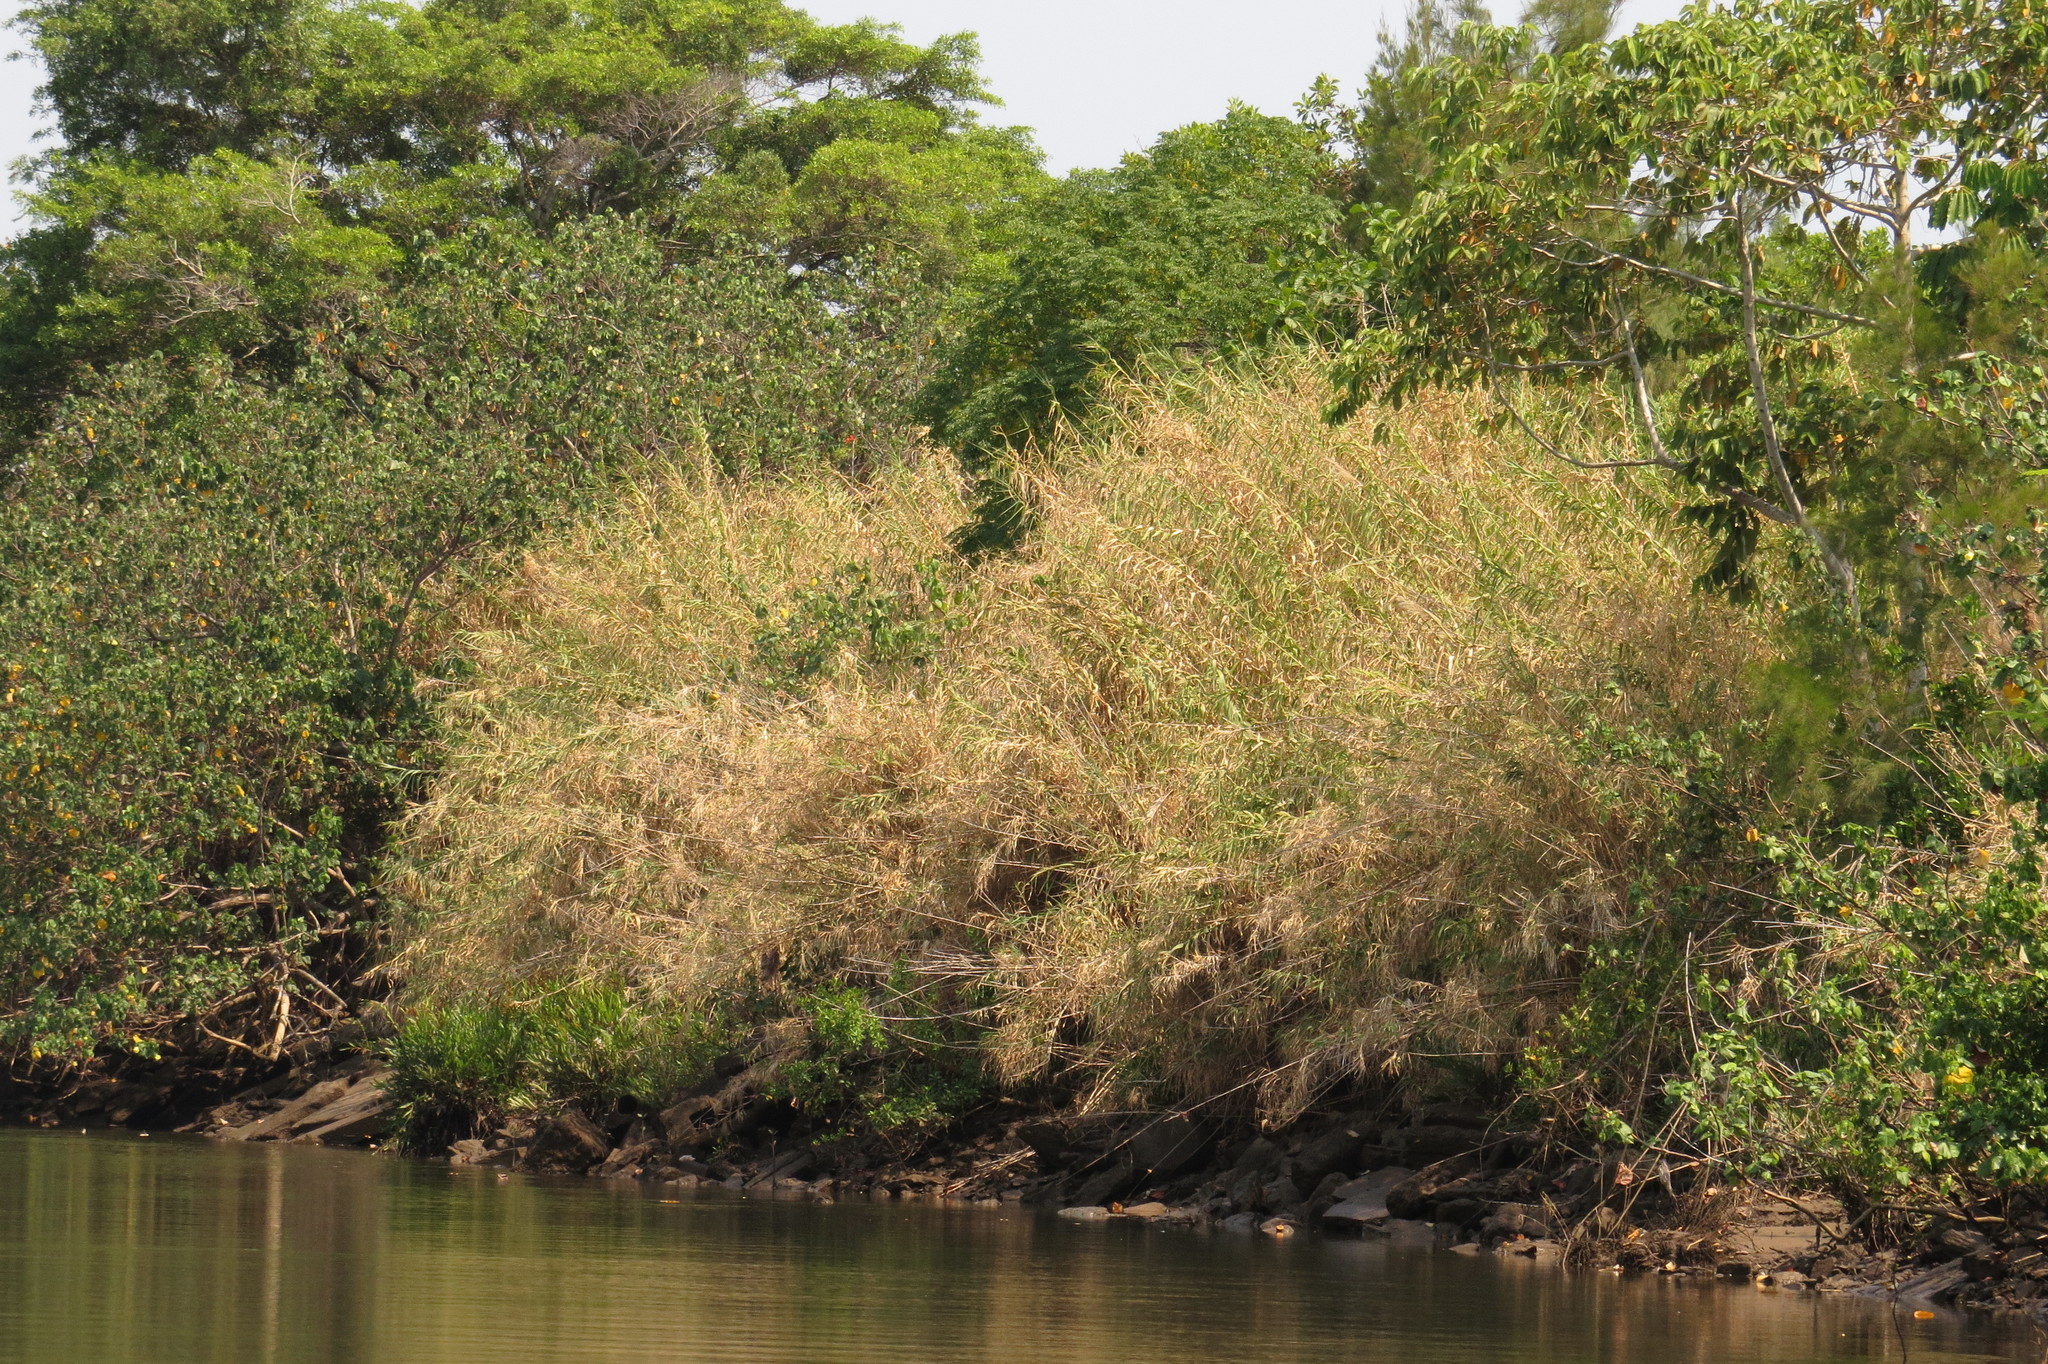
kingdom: Plantae
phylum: Tracheophyta
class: Liliopsida
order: Poales
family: Poaceae
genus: Arundo
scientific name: Arundo donax
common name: Giant reed
